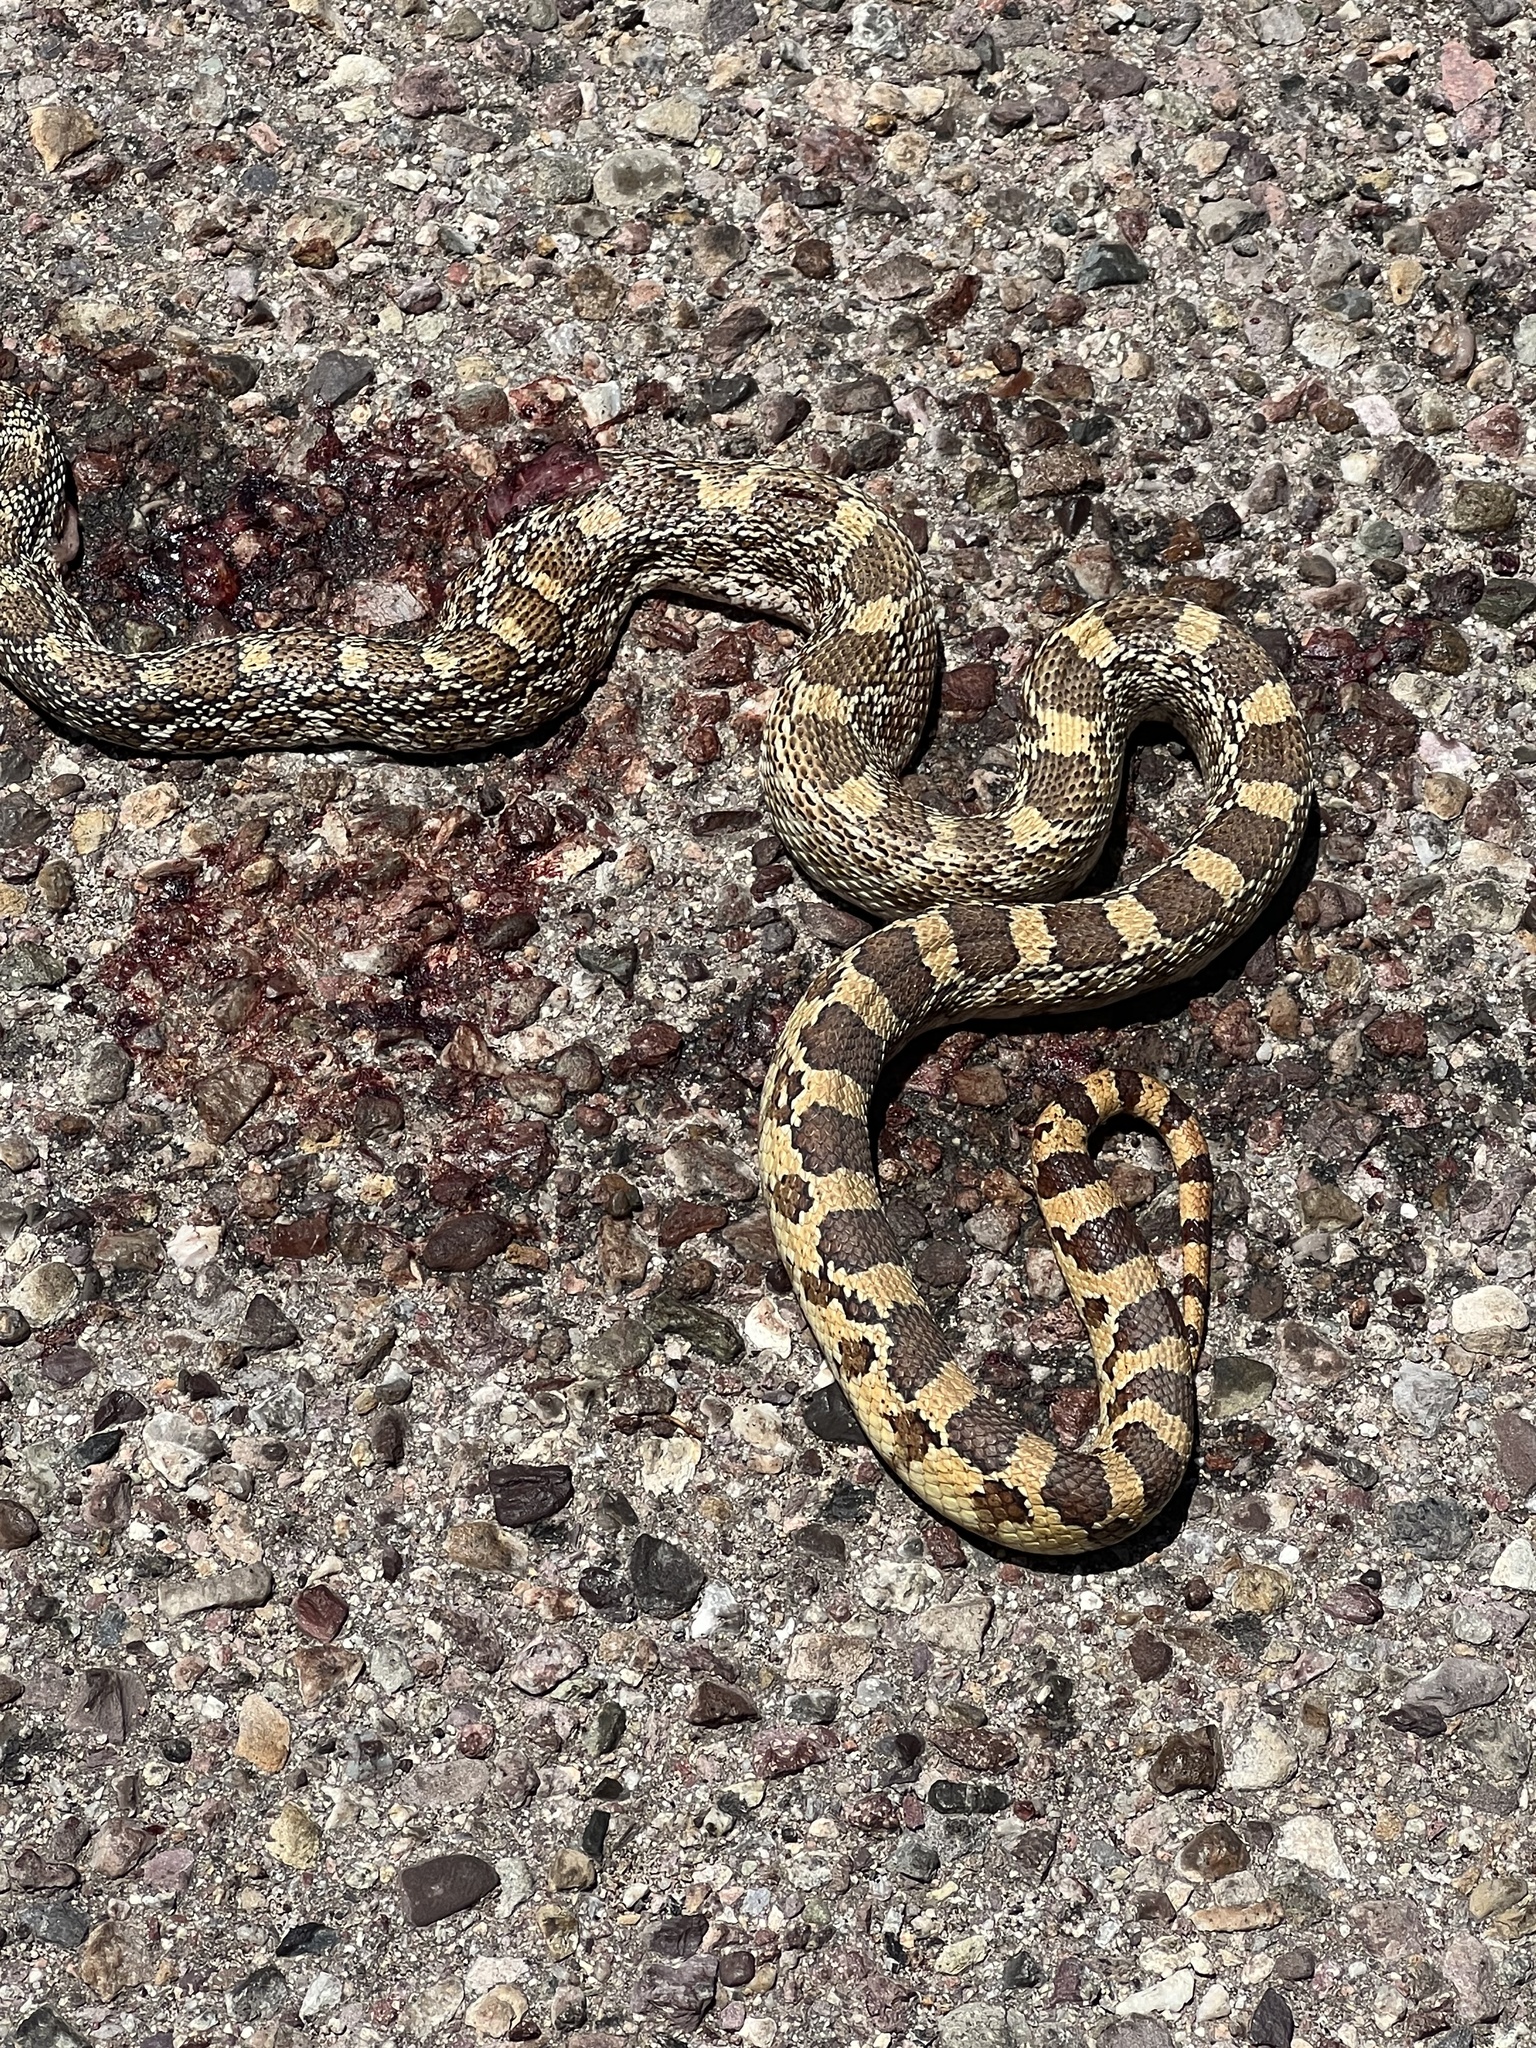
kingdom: Animalia
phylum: Chordata
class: Squamata
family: Colubridae
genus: Pituophis
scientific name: Pituophis catenifer
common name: Gopher snake
